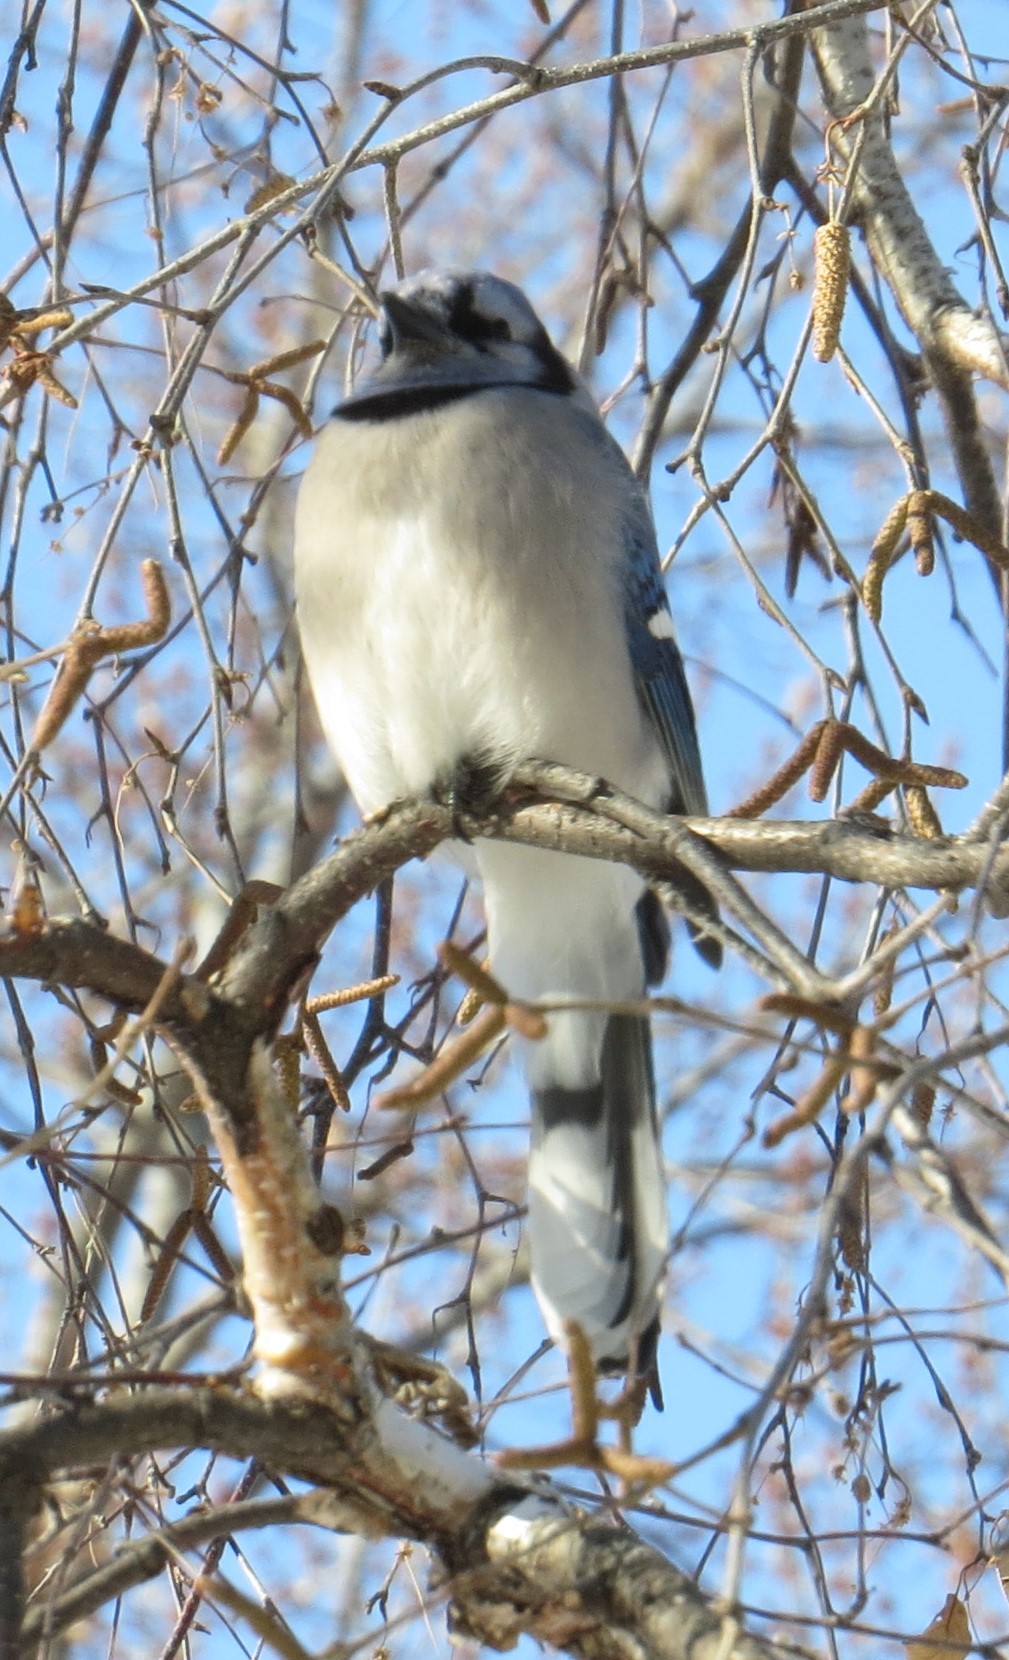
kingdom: Animalia
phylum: Chordata
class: Aves
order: Passeriformes
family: Corvidae
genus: Cyanocitta
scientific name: Cyanocitta cristata
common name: Blue jay
